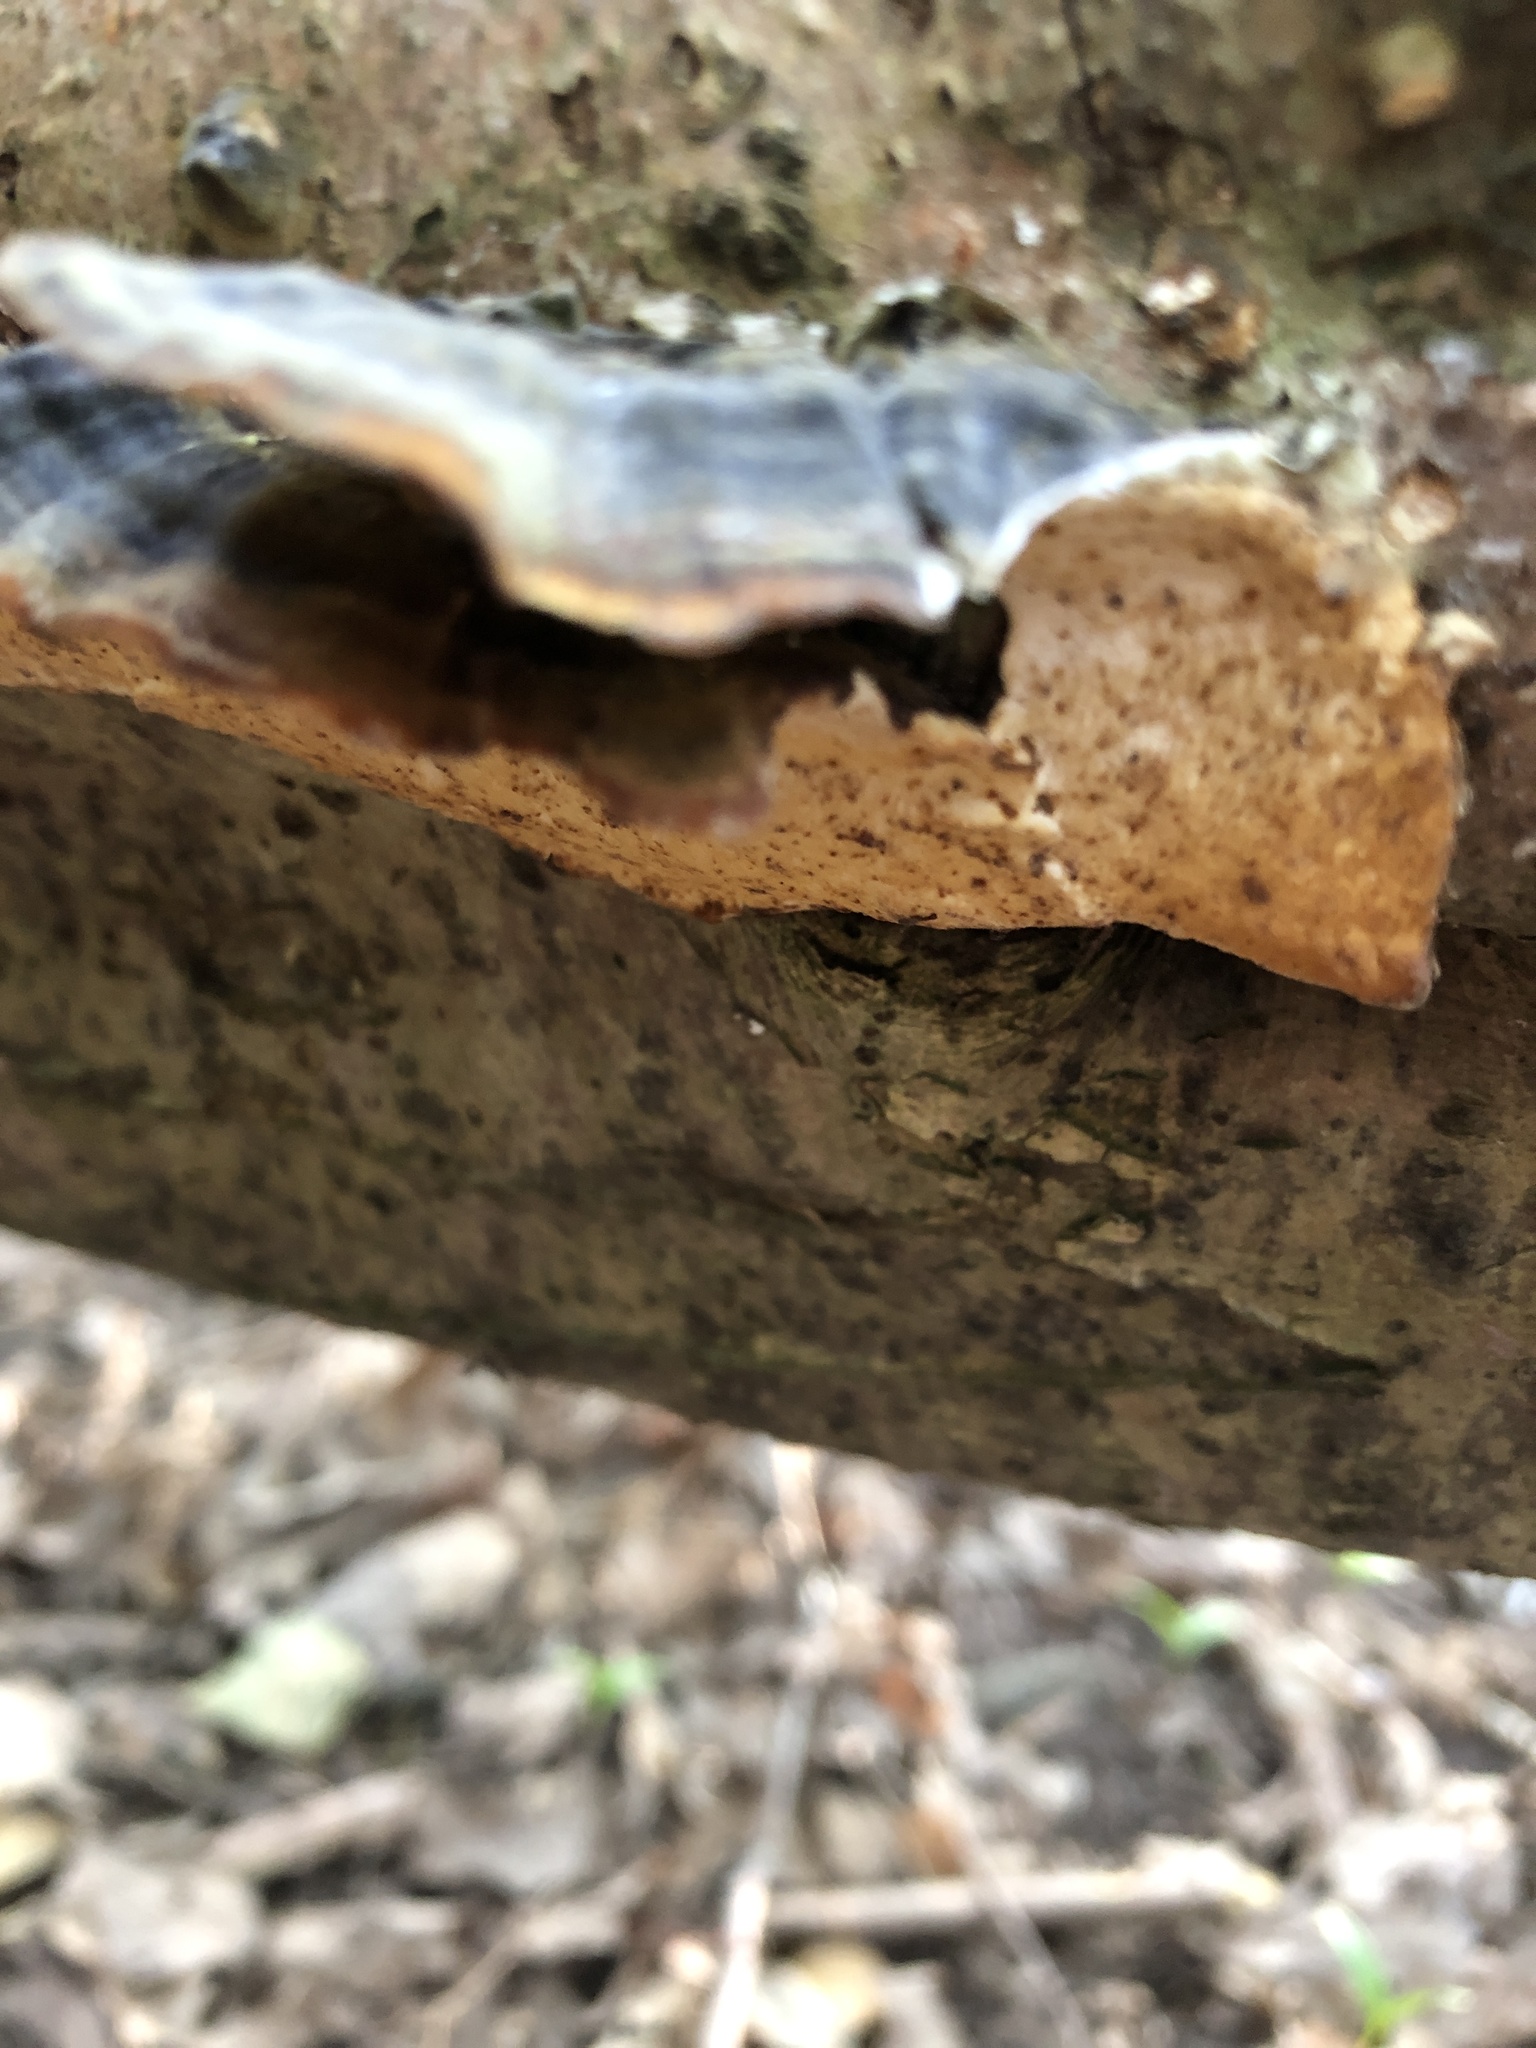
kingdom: Fungi
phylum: Basidiomycota
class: Agaricomycetes
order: Polyporales
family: Polyporaceae
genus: Trametes
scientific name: Trametes versicolor
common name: Turkeytail
